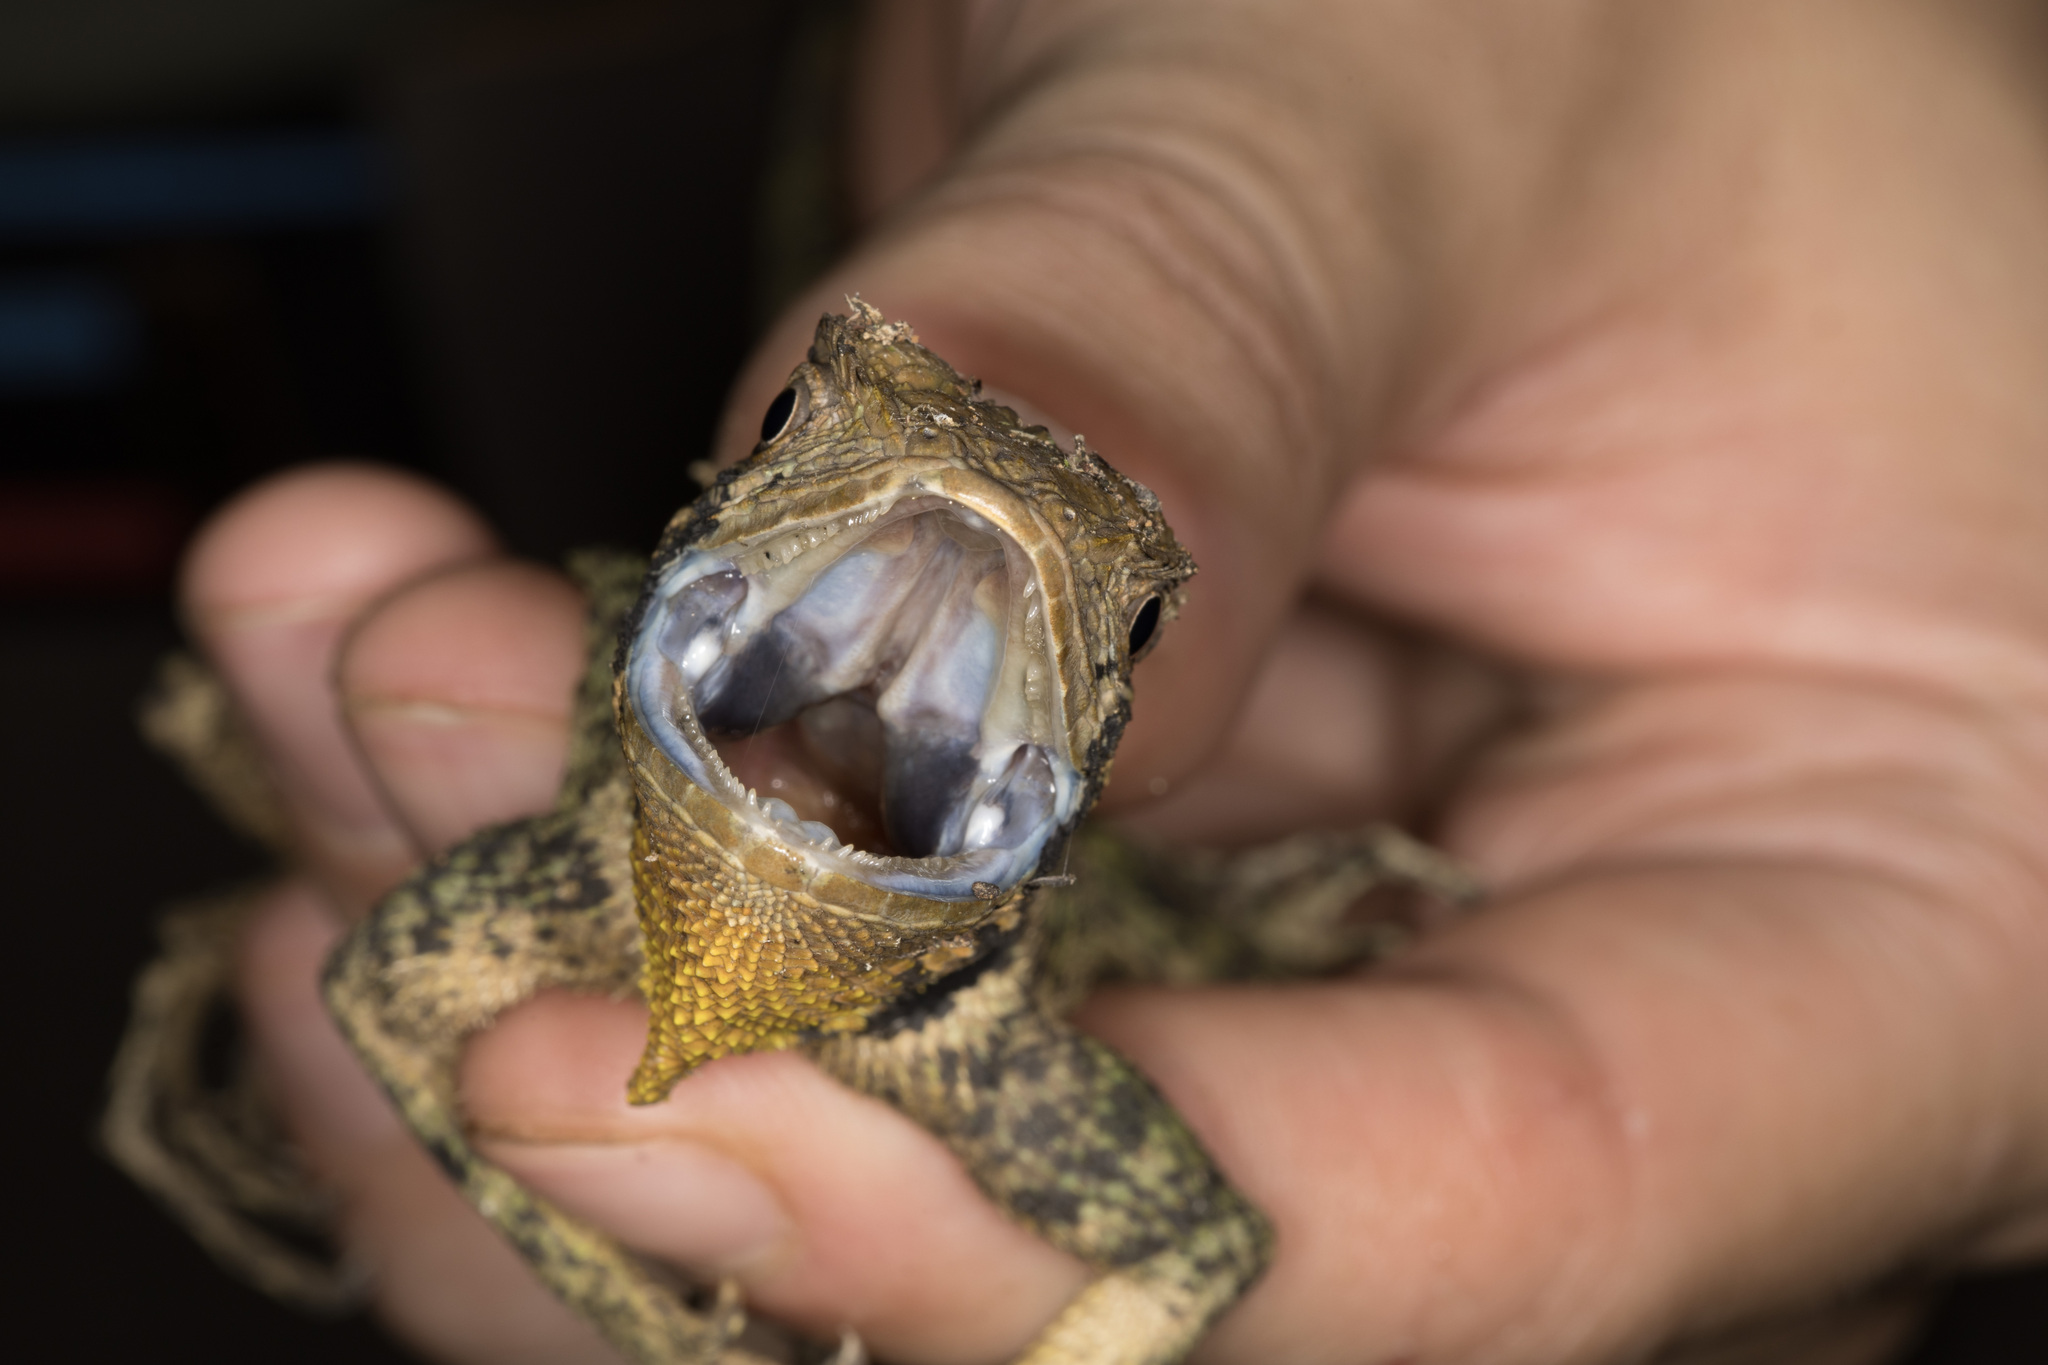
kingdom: Animalia
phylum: Chordata
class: Squamata
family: Tropiduridae
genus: Plica
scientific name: Plica umbra
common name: Harlequin racerunner
